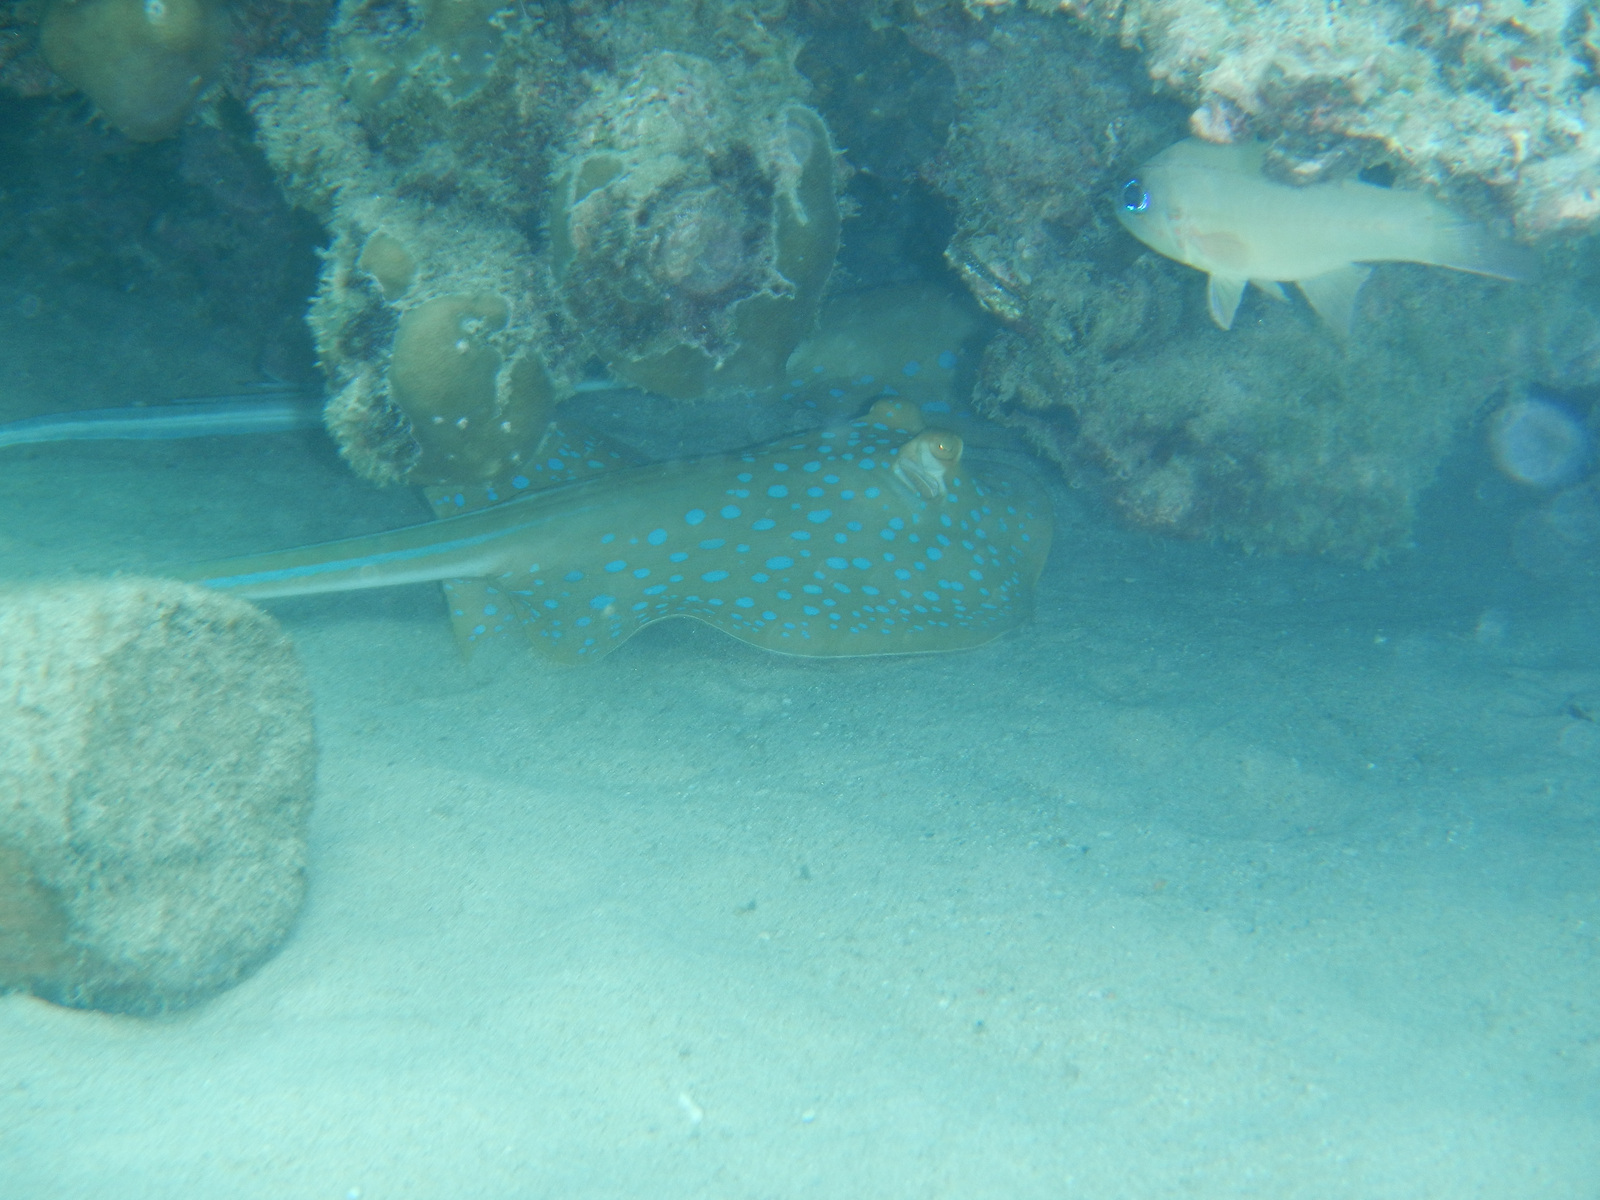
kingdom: Animalia
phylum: Chordata
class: Elasmobranchii
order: Myliobatiformes
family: Dasyatidae
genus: Taeniura
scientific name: Taeniura lymma
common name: Bluespotted ribbontail ray
